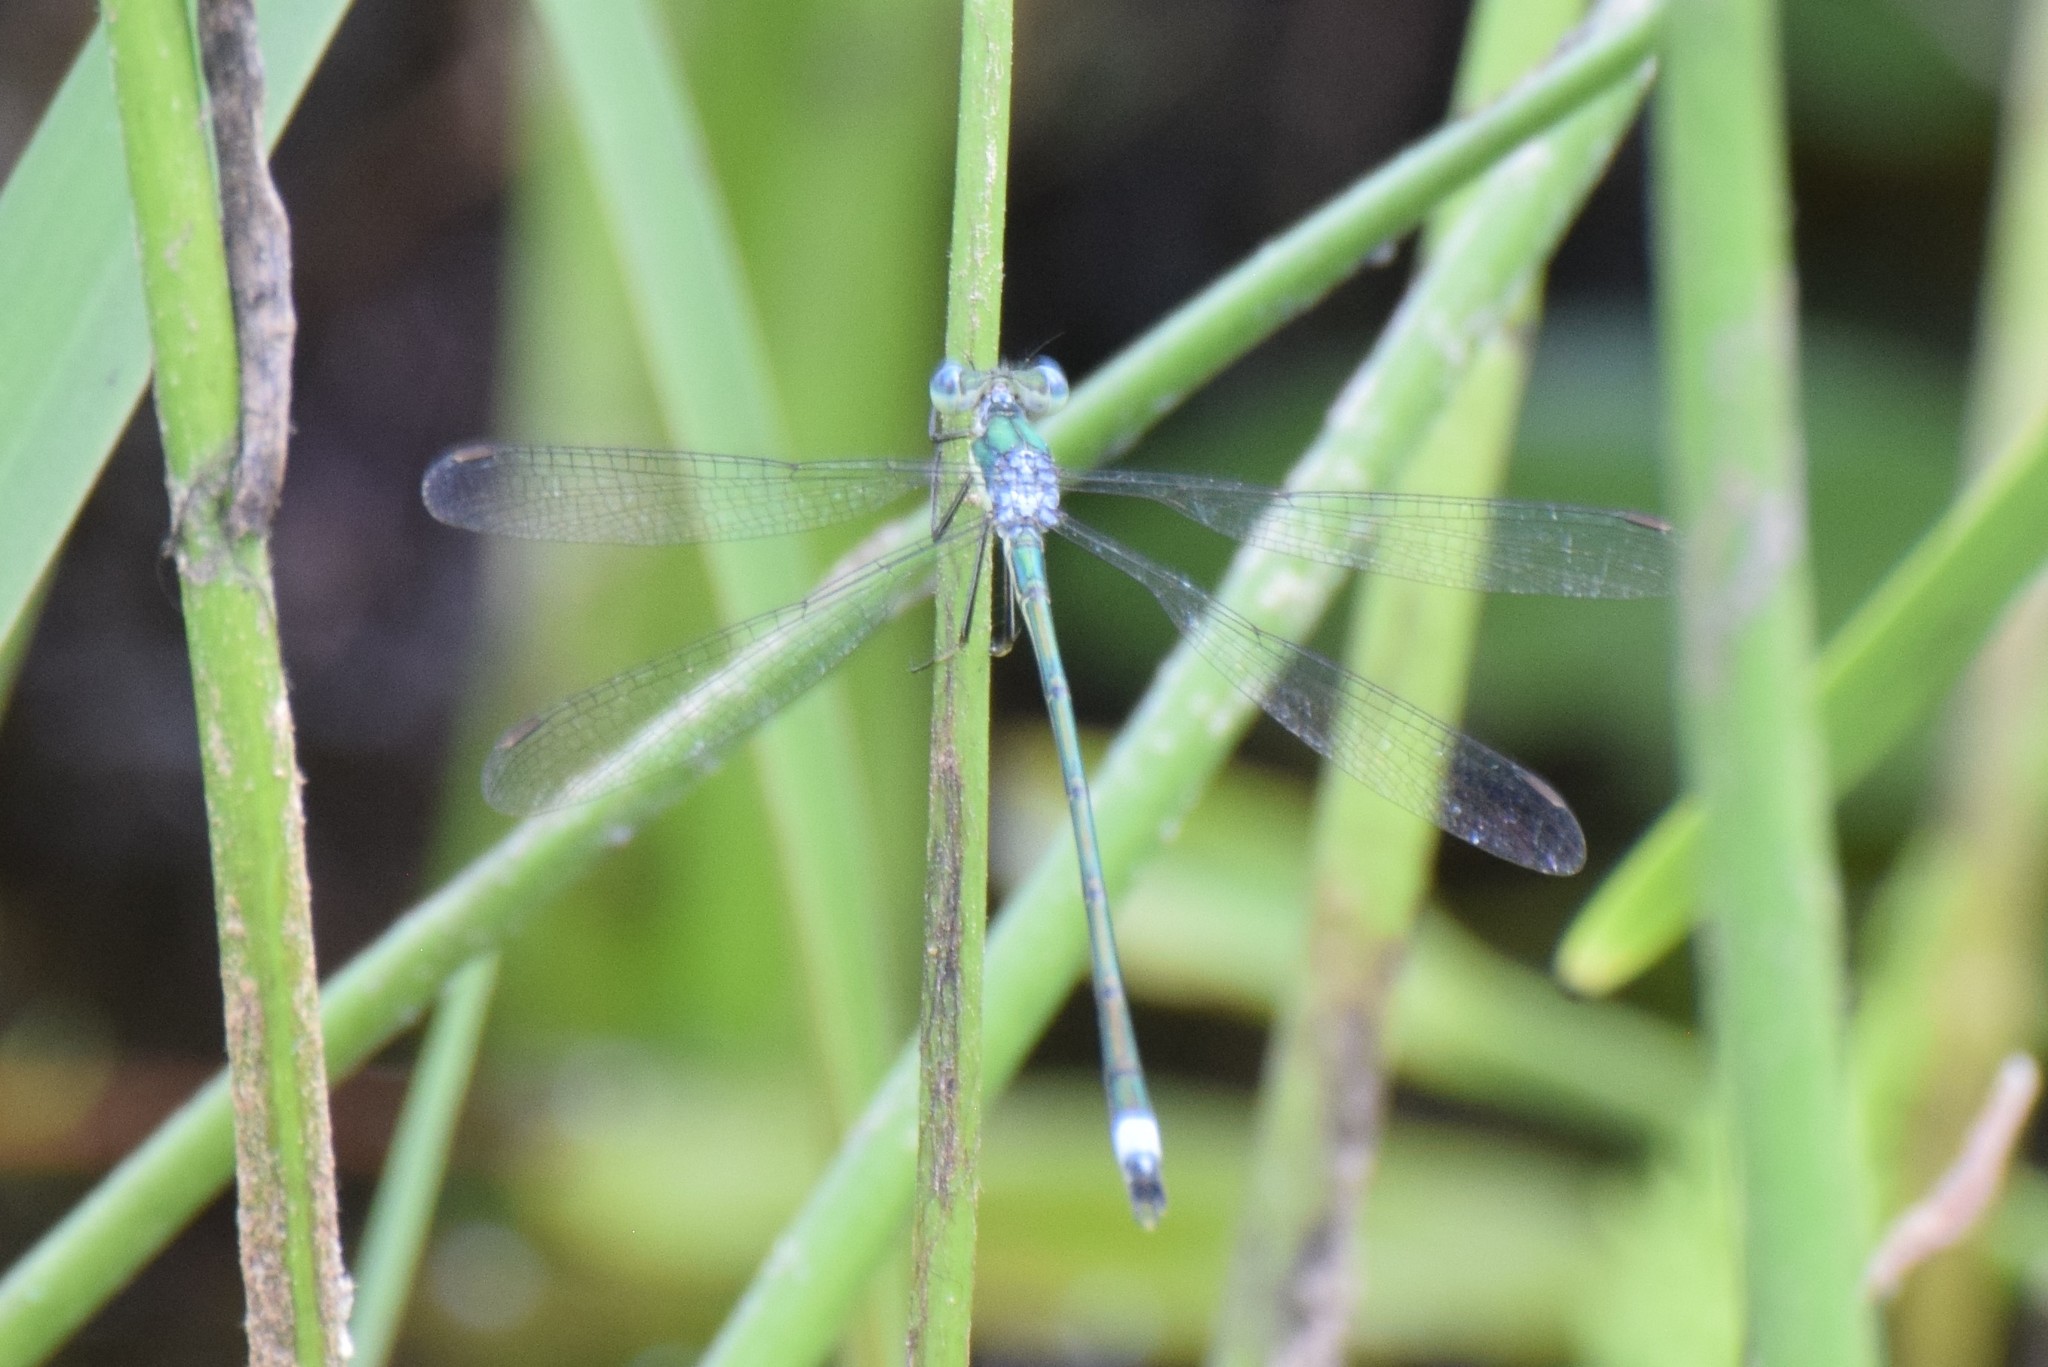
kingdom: Animalia
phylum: Arthropoda
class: Insecta
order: Odonata
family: Lestidae
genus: Lestes
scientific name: Lestes inaequalis
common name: Elegant spreadwing
